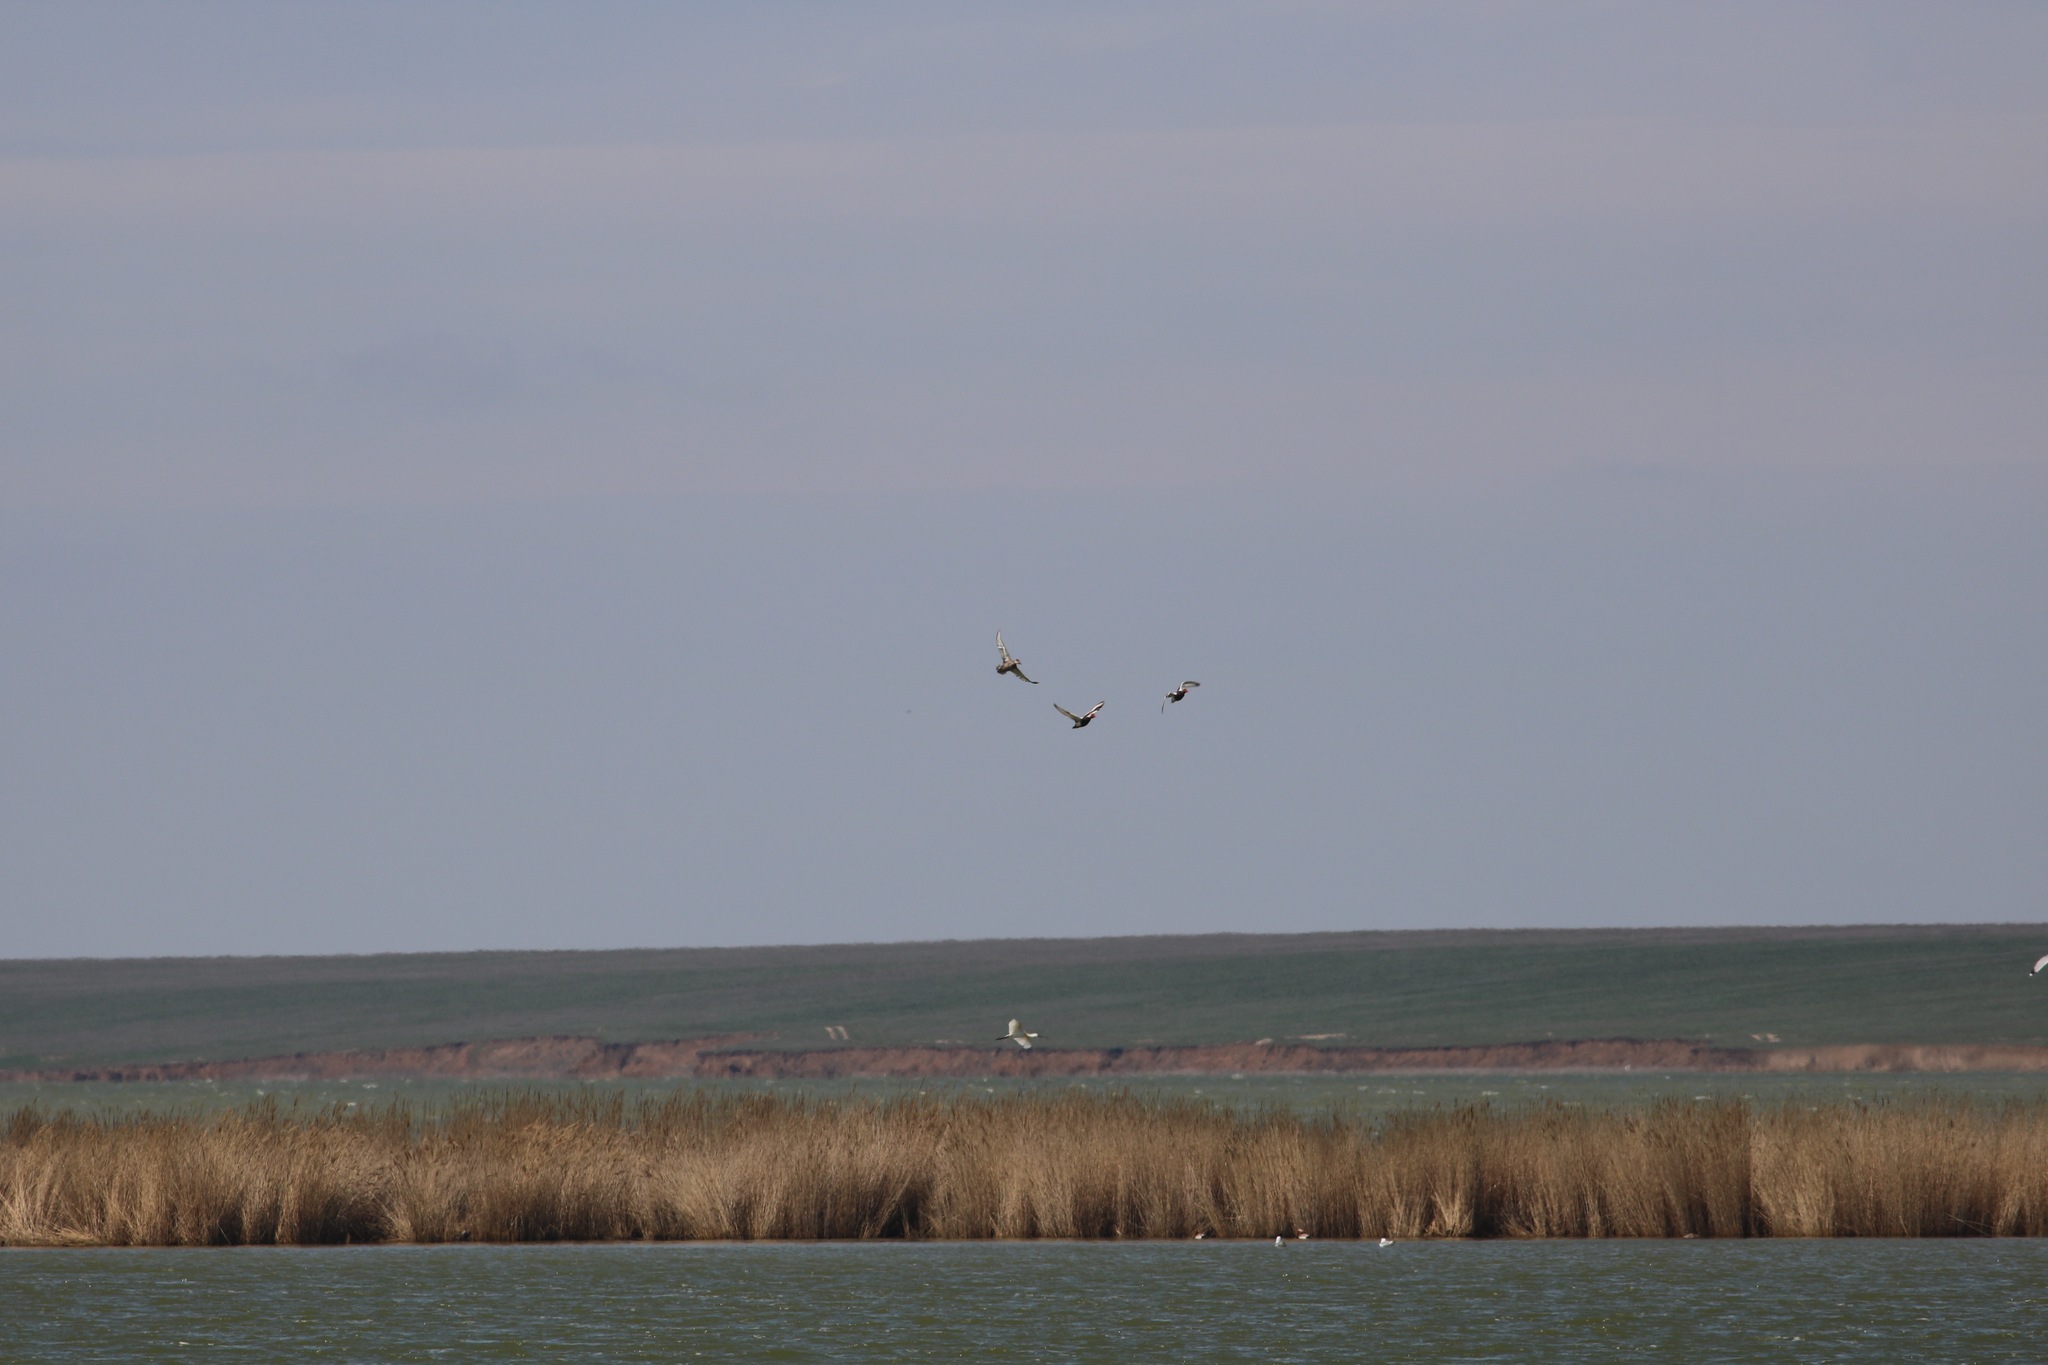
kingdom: Animalia
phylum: Chordata
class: Aves
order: Pelecaniformes
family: Threskiornithidae
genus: Platalea
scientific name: Platalea leucorodia
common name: Eurasian spoonbill
